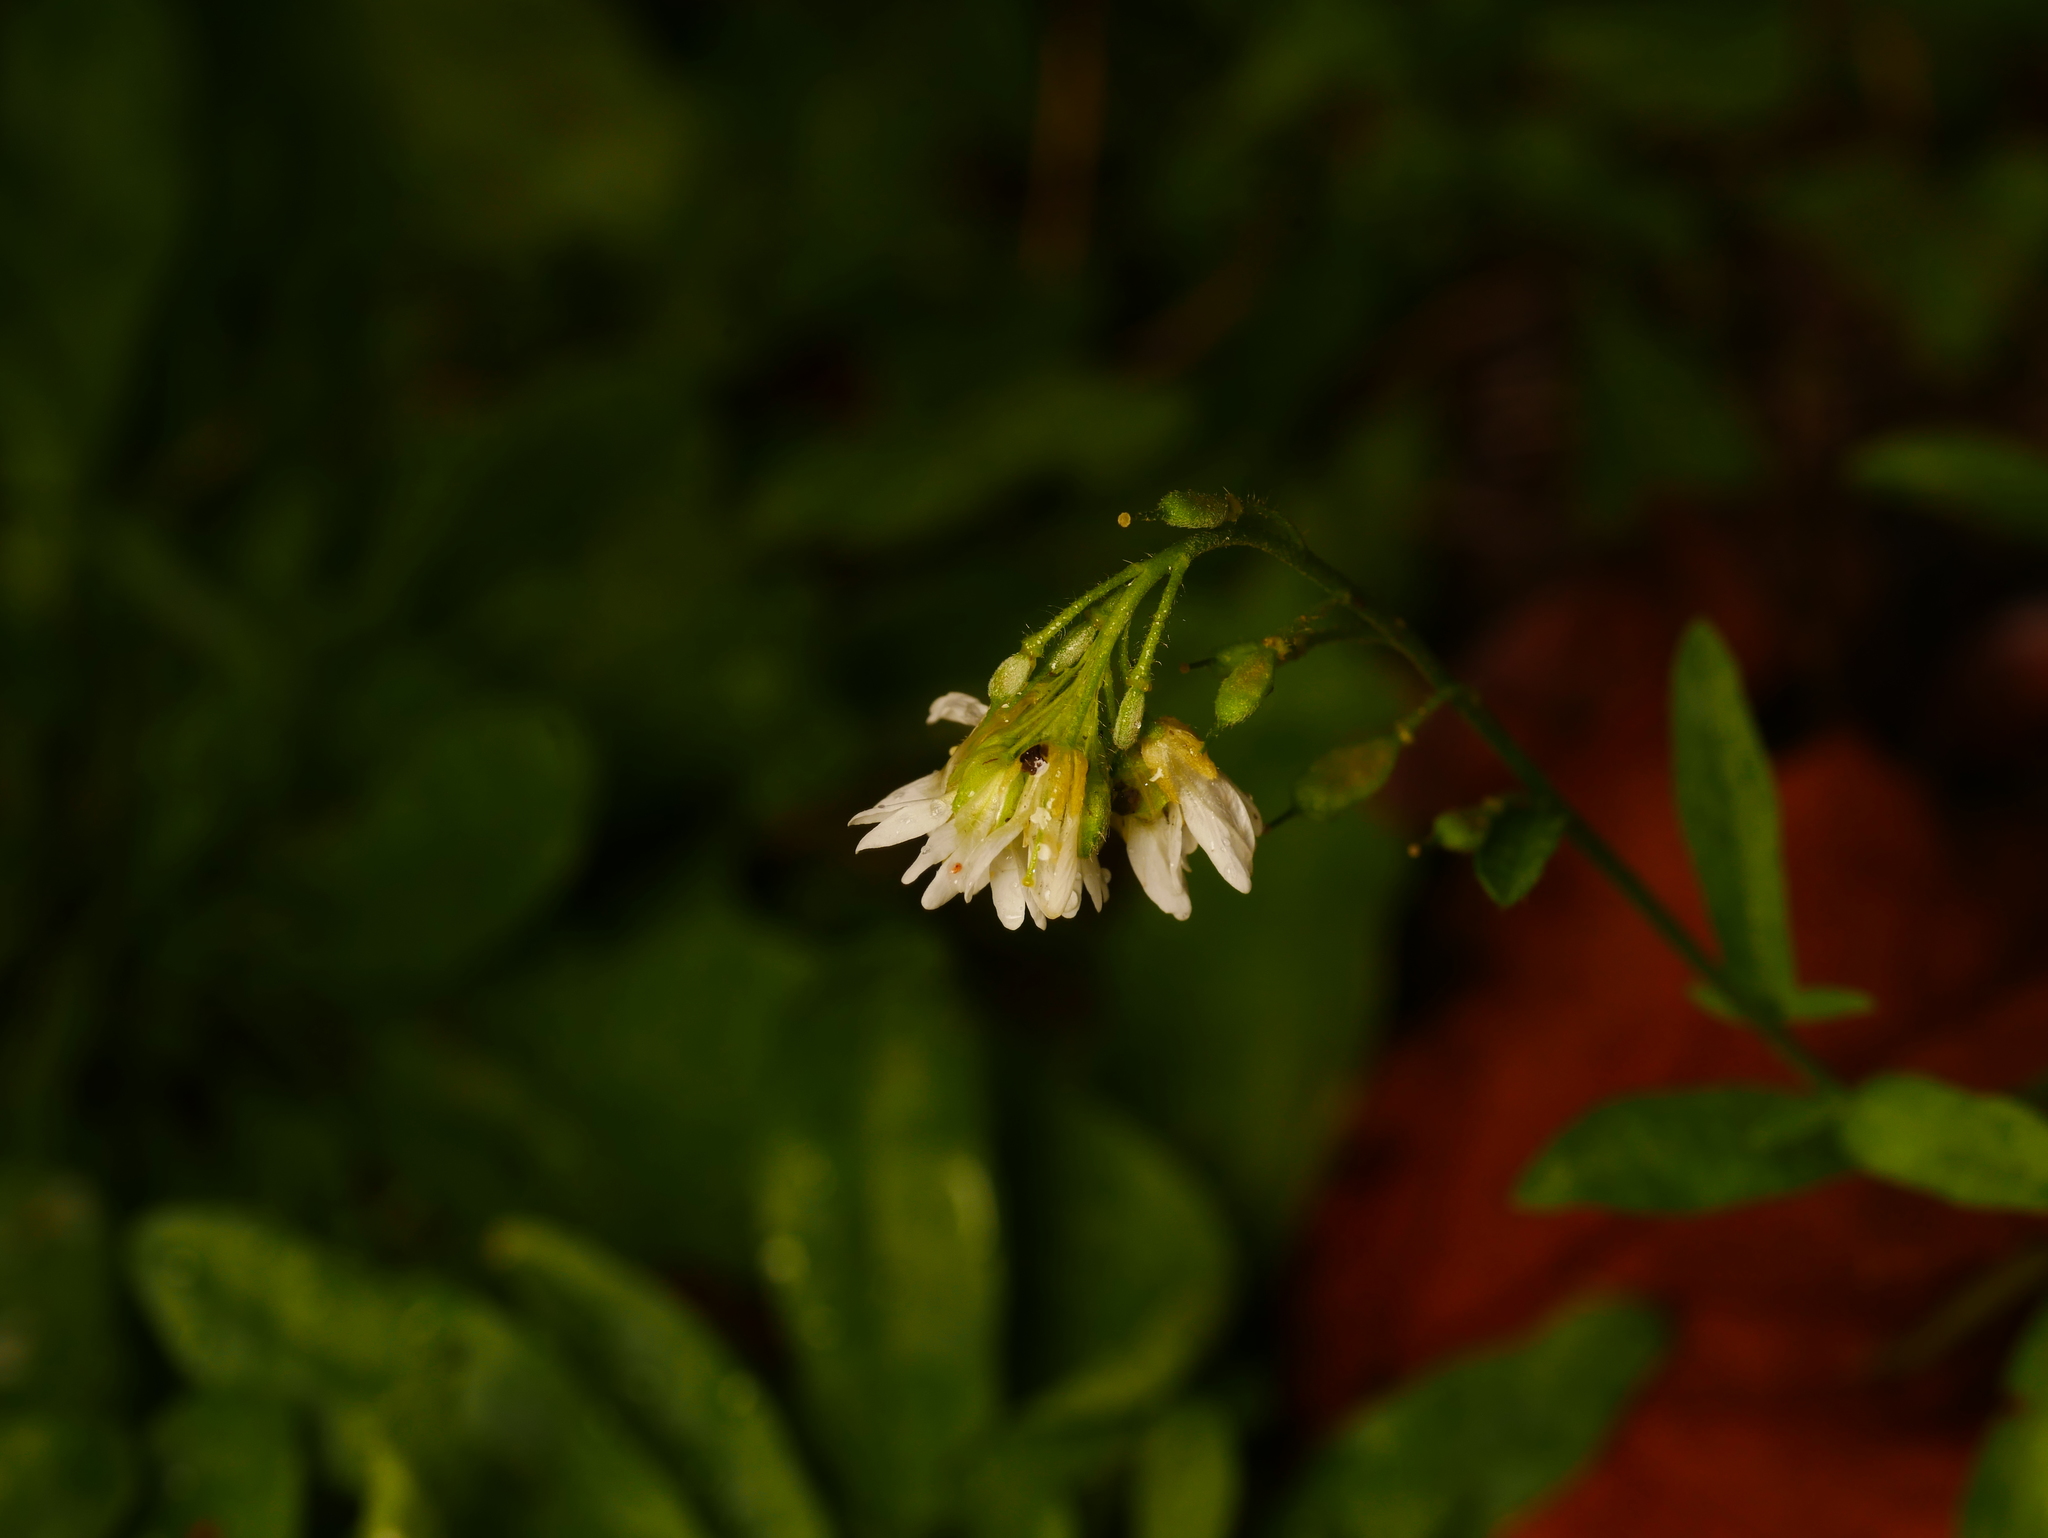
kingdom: Plantae
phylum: Tracheophyta
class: Magnoliopsida
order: Brassicales
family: Brassicaceae
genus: Berteroa
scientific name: Berteroa incana
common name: Hoary alison
